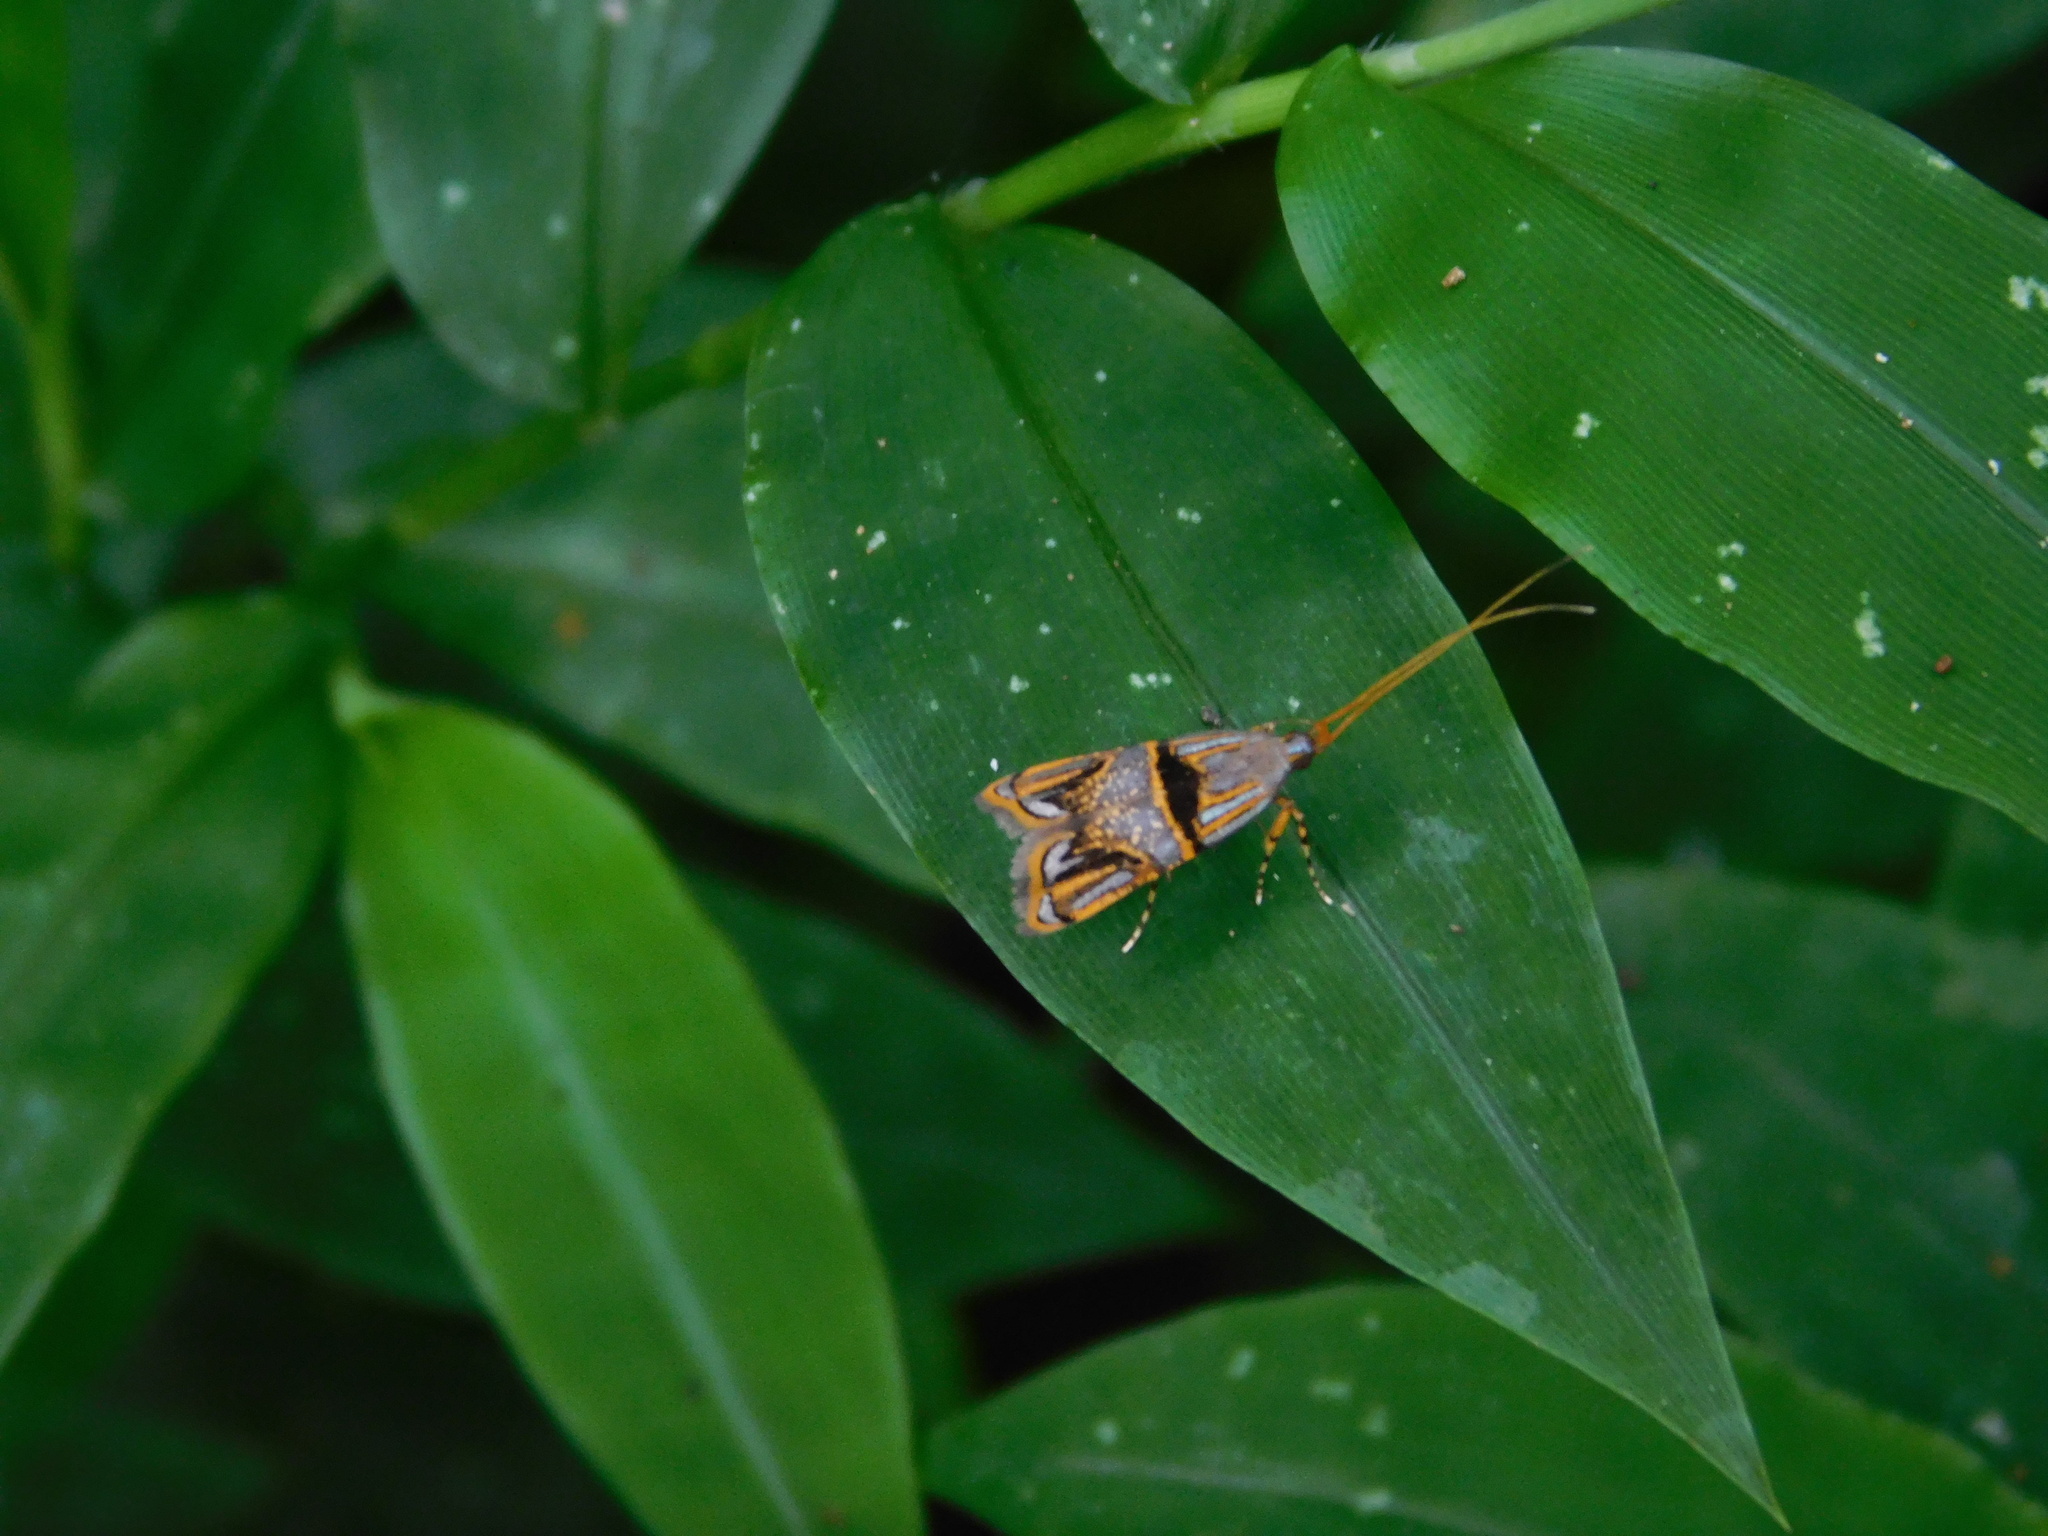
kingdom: Animalia
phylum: Arthropoda
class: Insecta
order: Lepidoptera
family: Lecithoceridae
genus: Halolaguna
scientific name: Halolaguna biferrinella
